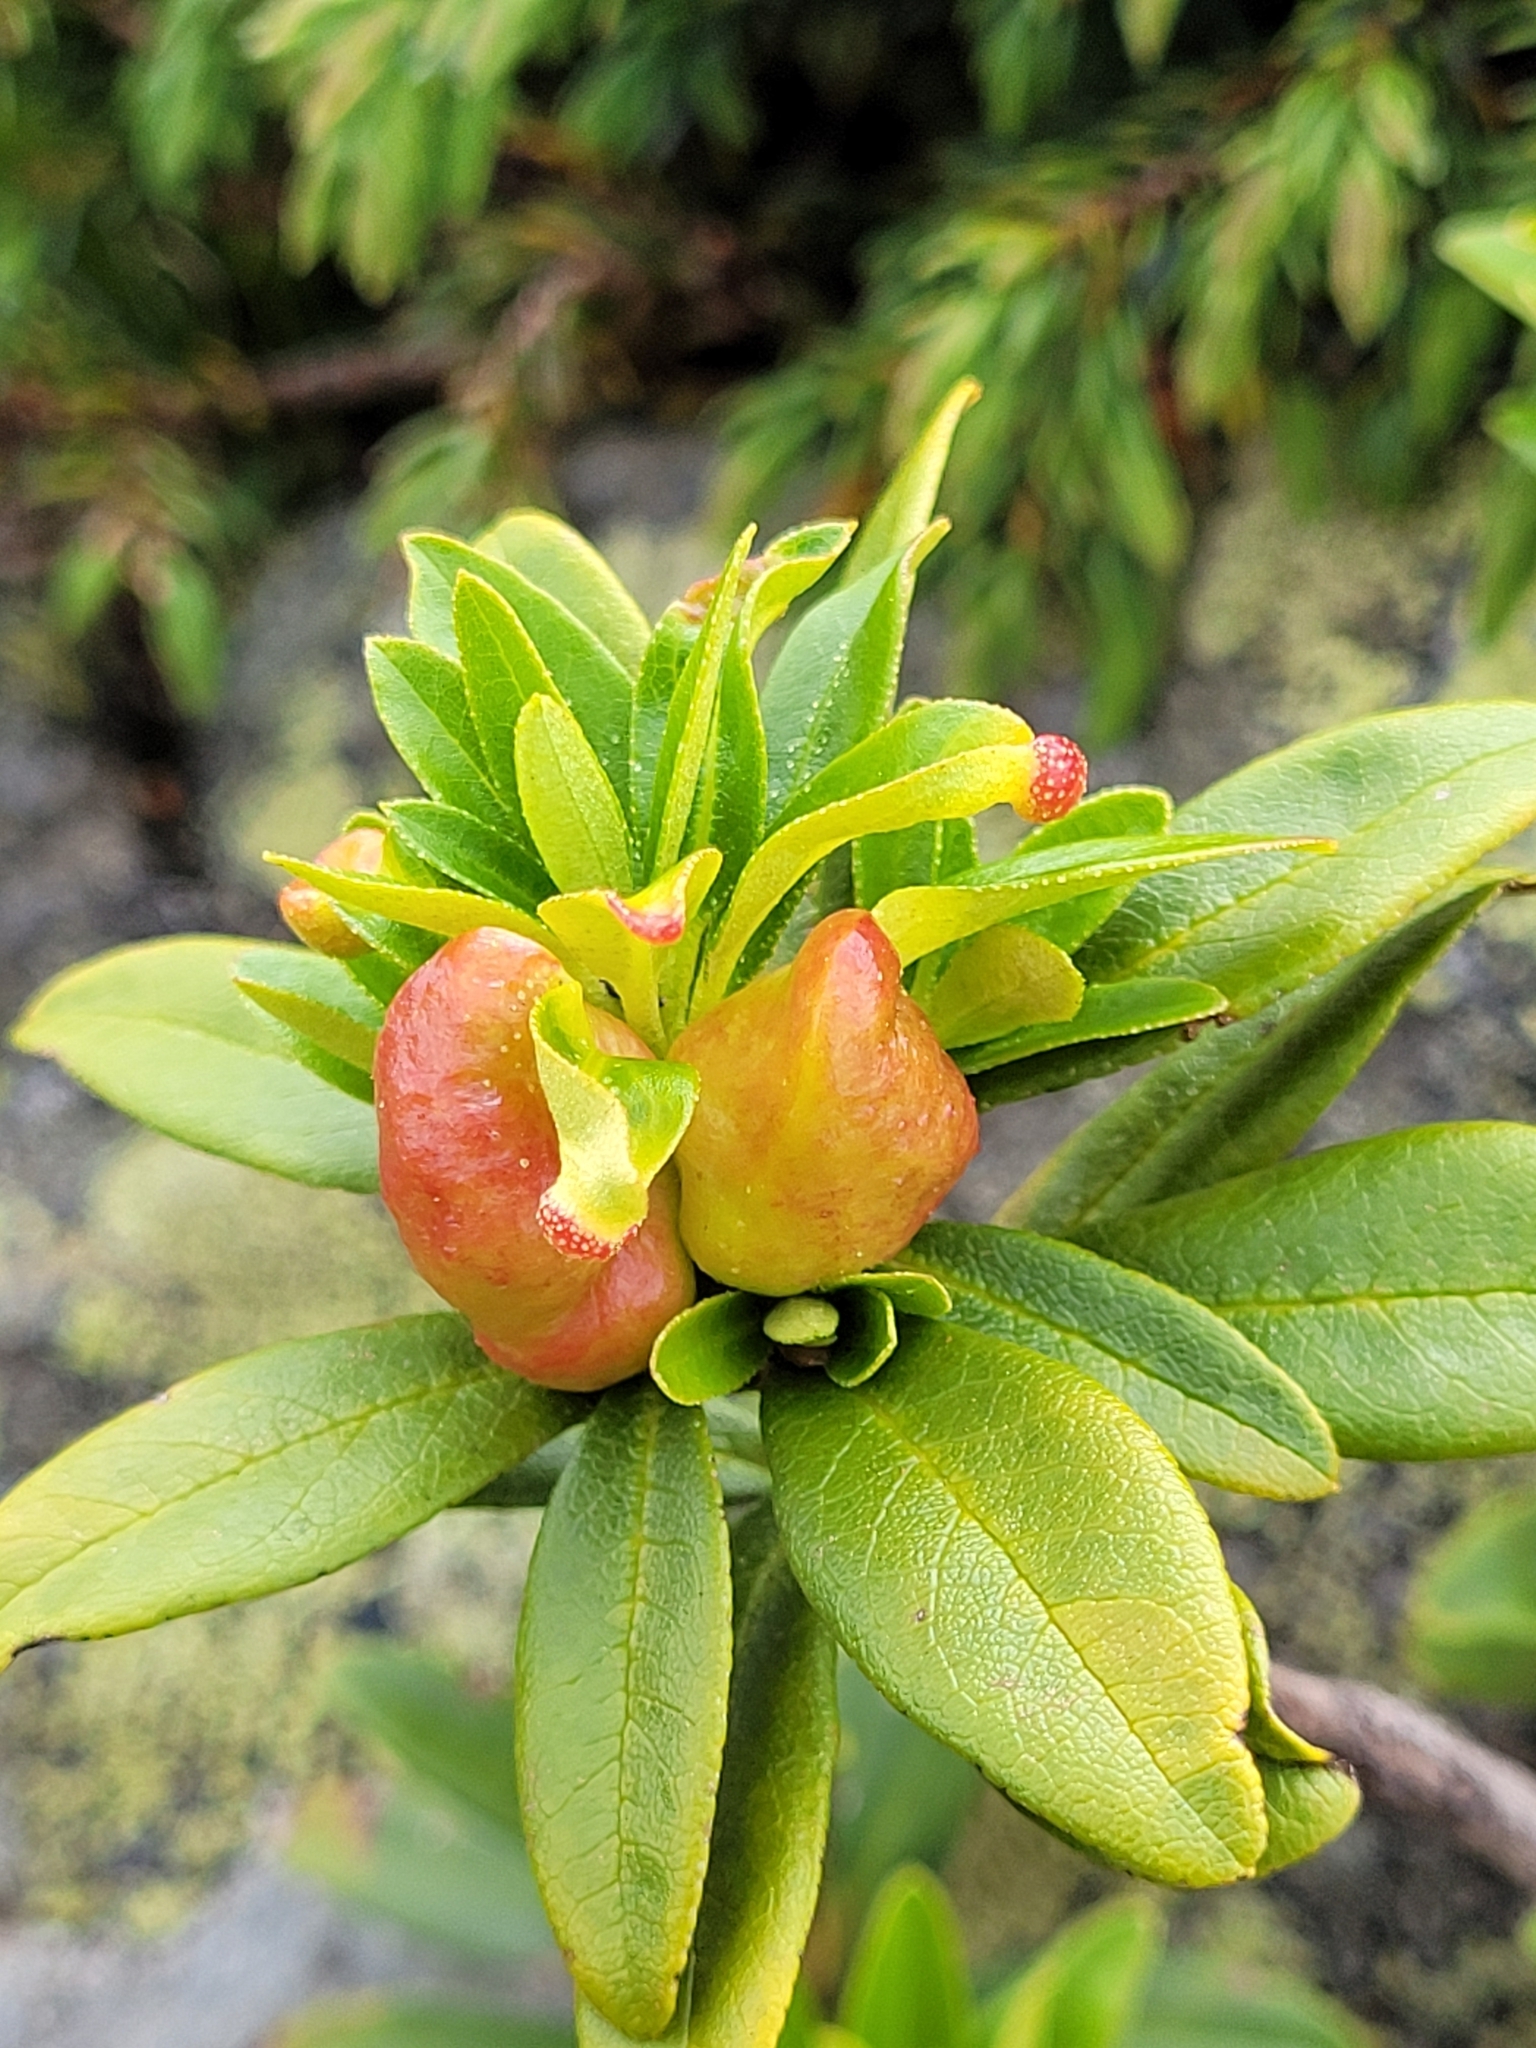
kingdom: Fungi
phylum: Basidiomycota
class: Exobasidiomycetes
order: Exobasidiales
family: Exobasidiaceae
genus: Exobasidium
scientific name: Exobasidium rhododendri
